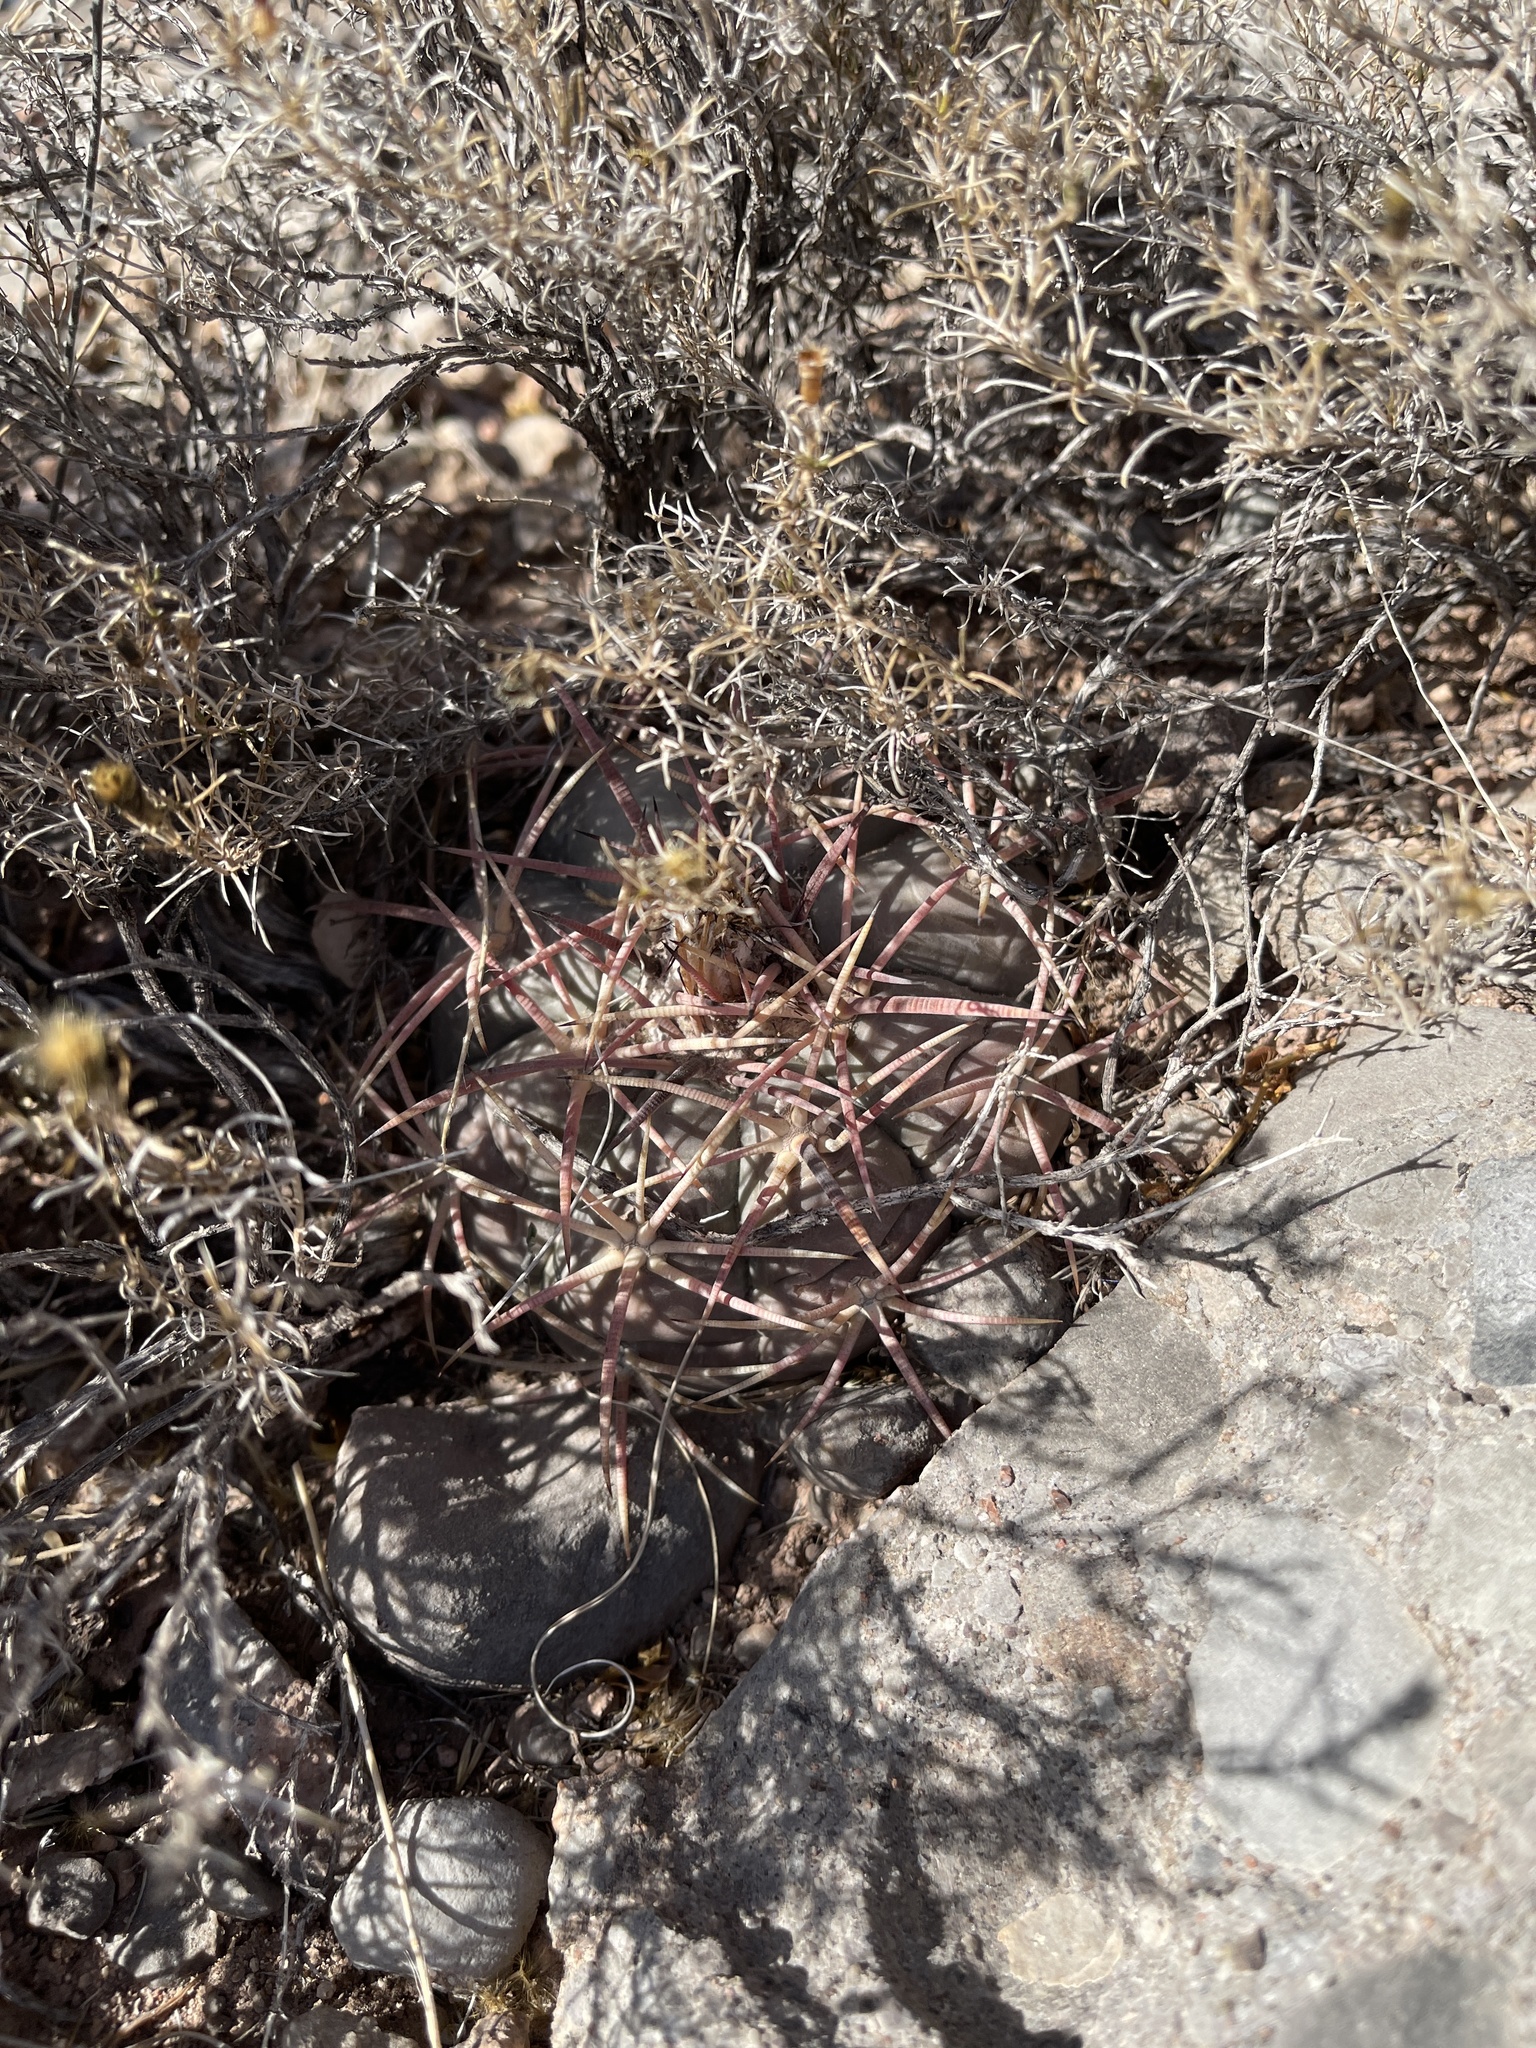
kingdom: Plantae
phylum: Tracheophyta
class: Magnoliopsida
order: Caryophyllales
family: Cactaceae
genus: Echinocactus
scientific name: Echinocactus horizonthalonius
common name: Devilshead
